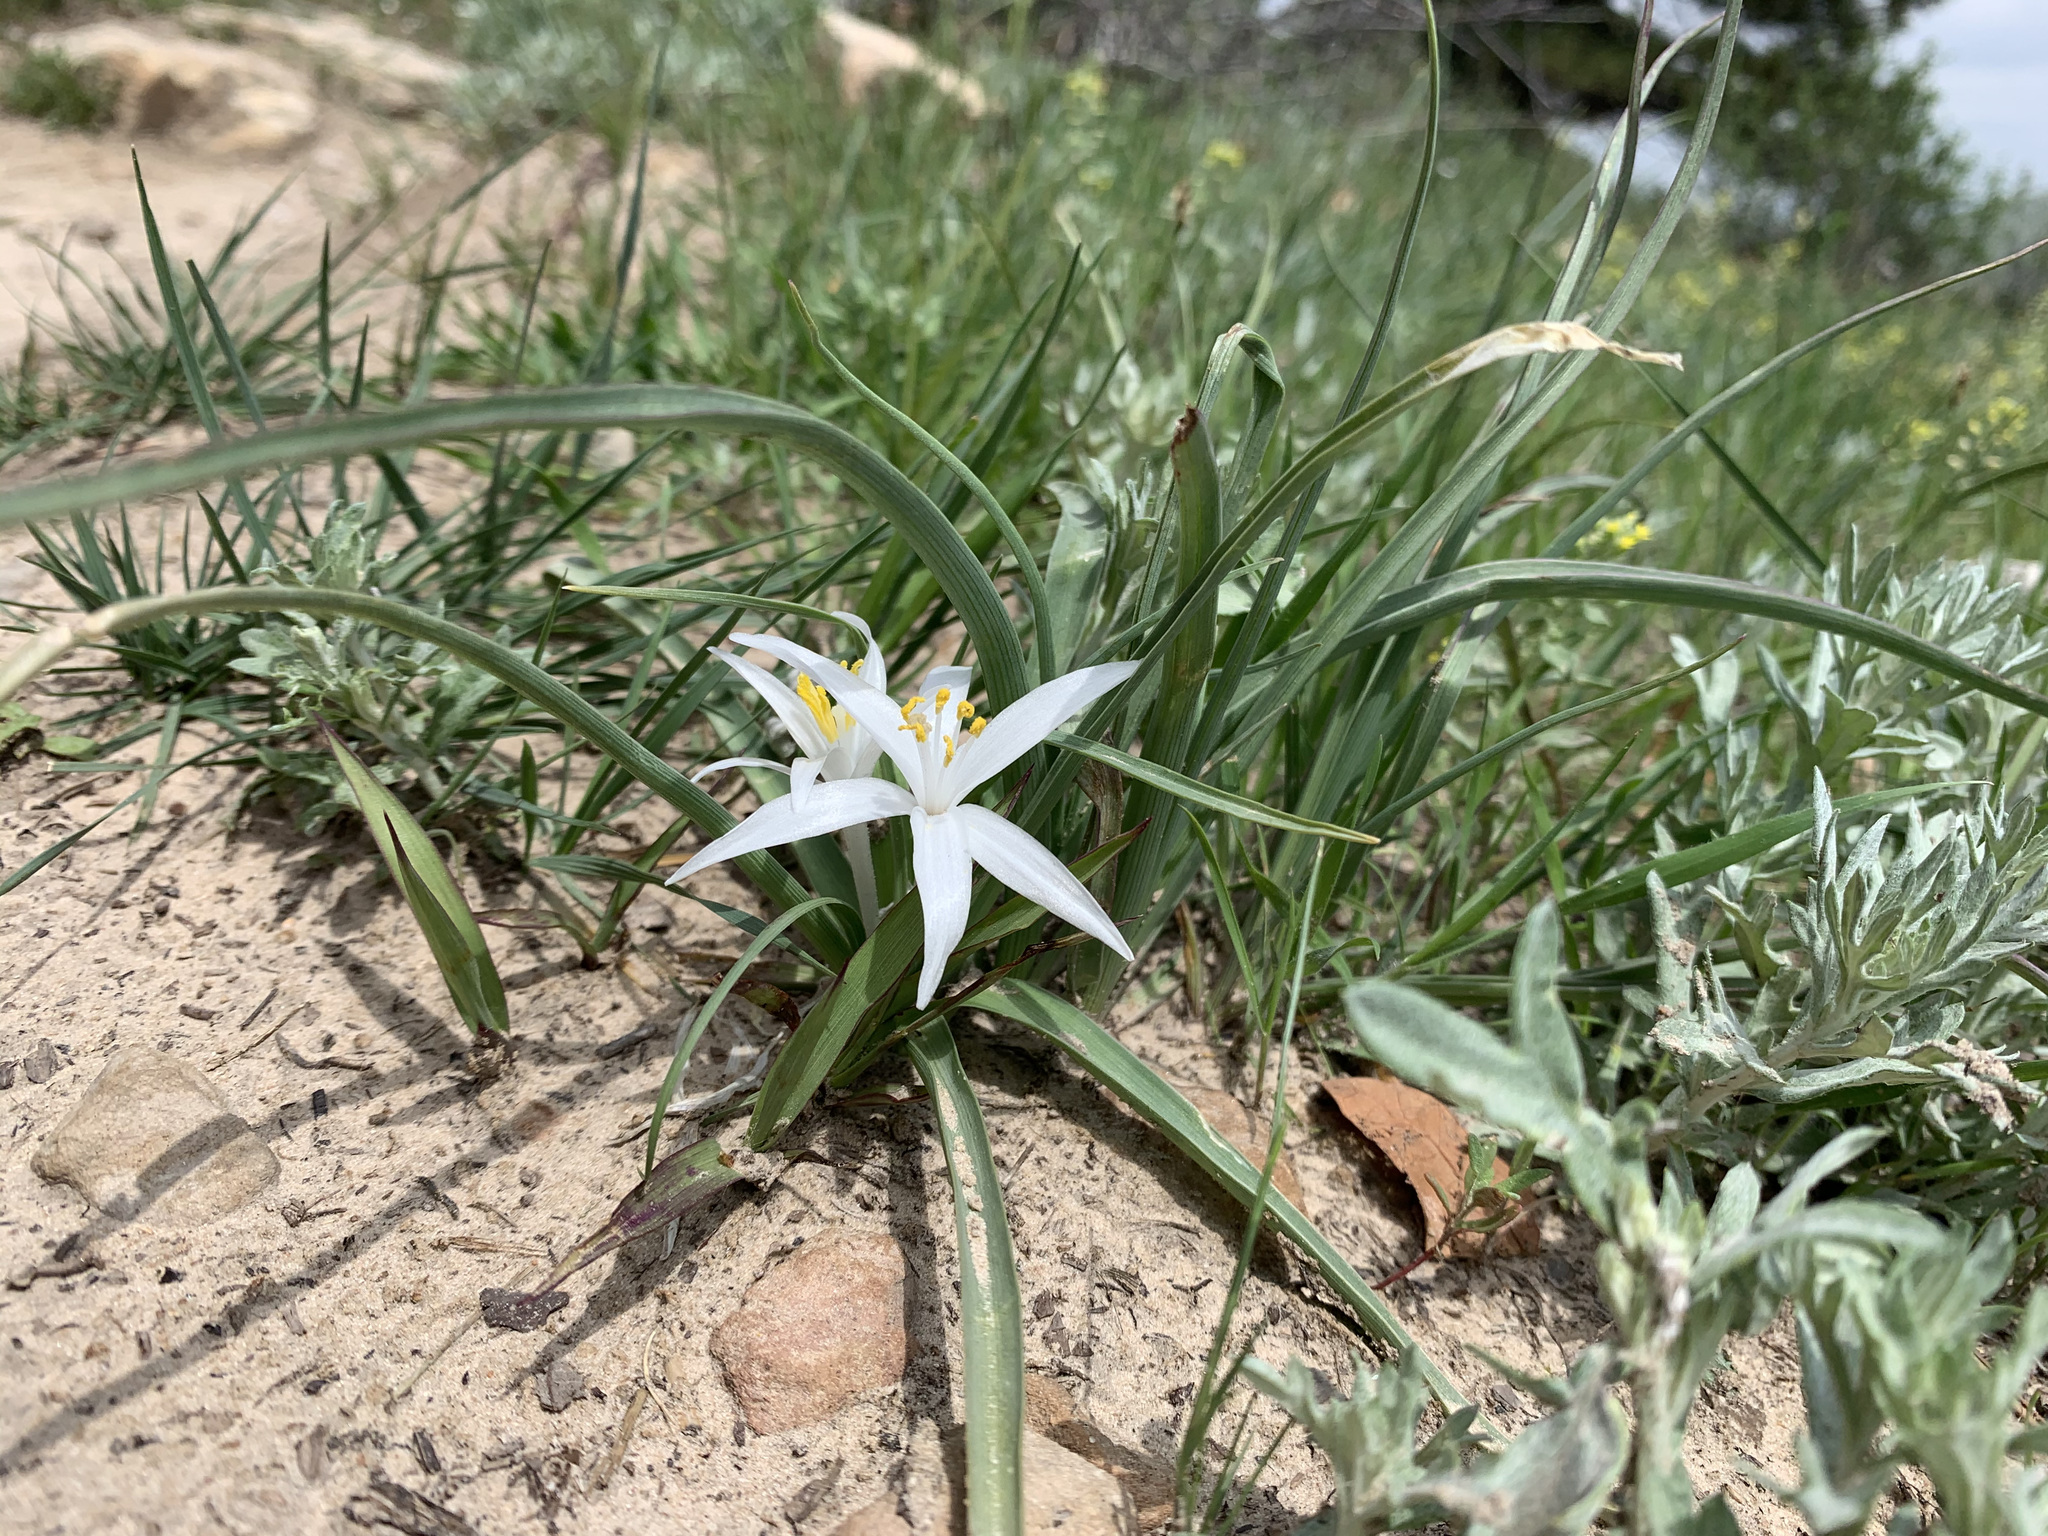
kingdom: Plantae
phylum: Tracheophyta
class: Liliopsida
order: Asparagales
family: Asparagaceae
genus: Leucocrinum
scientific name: Leucocrinum montanum
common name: Mountain-lily
